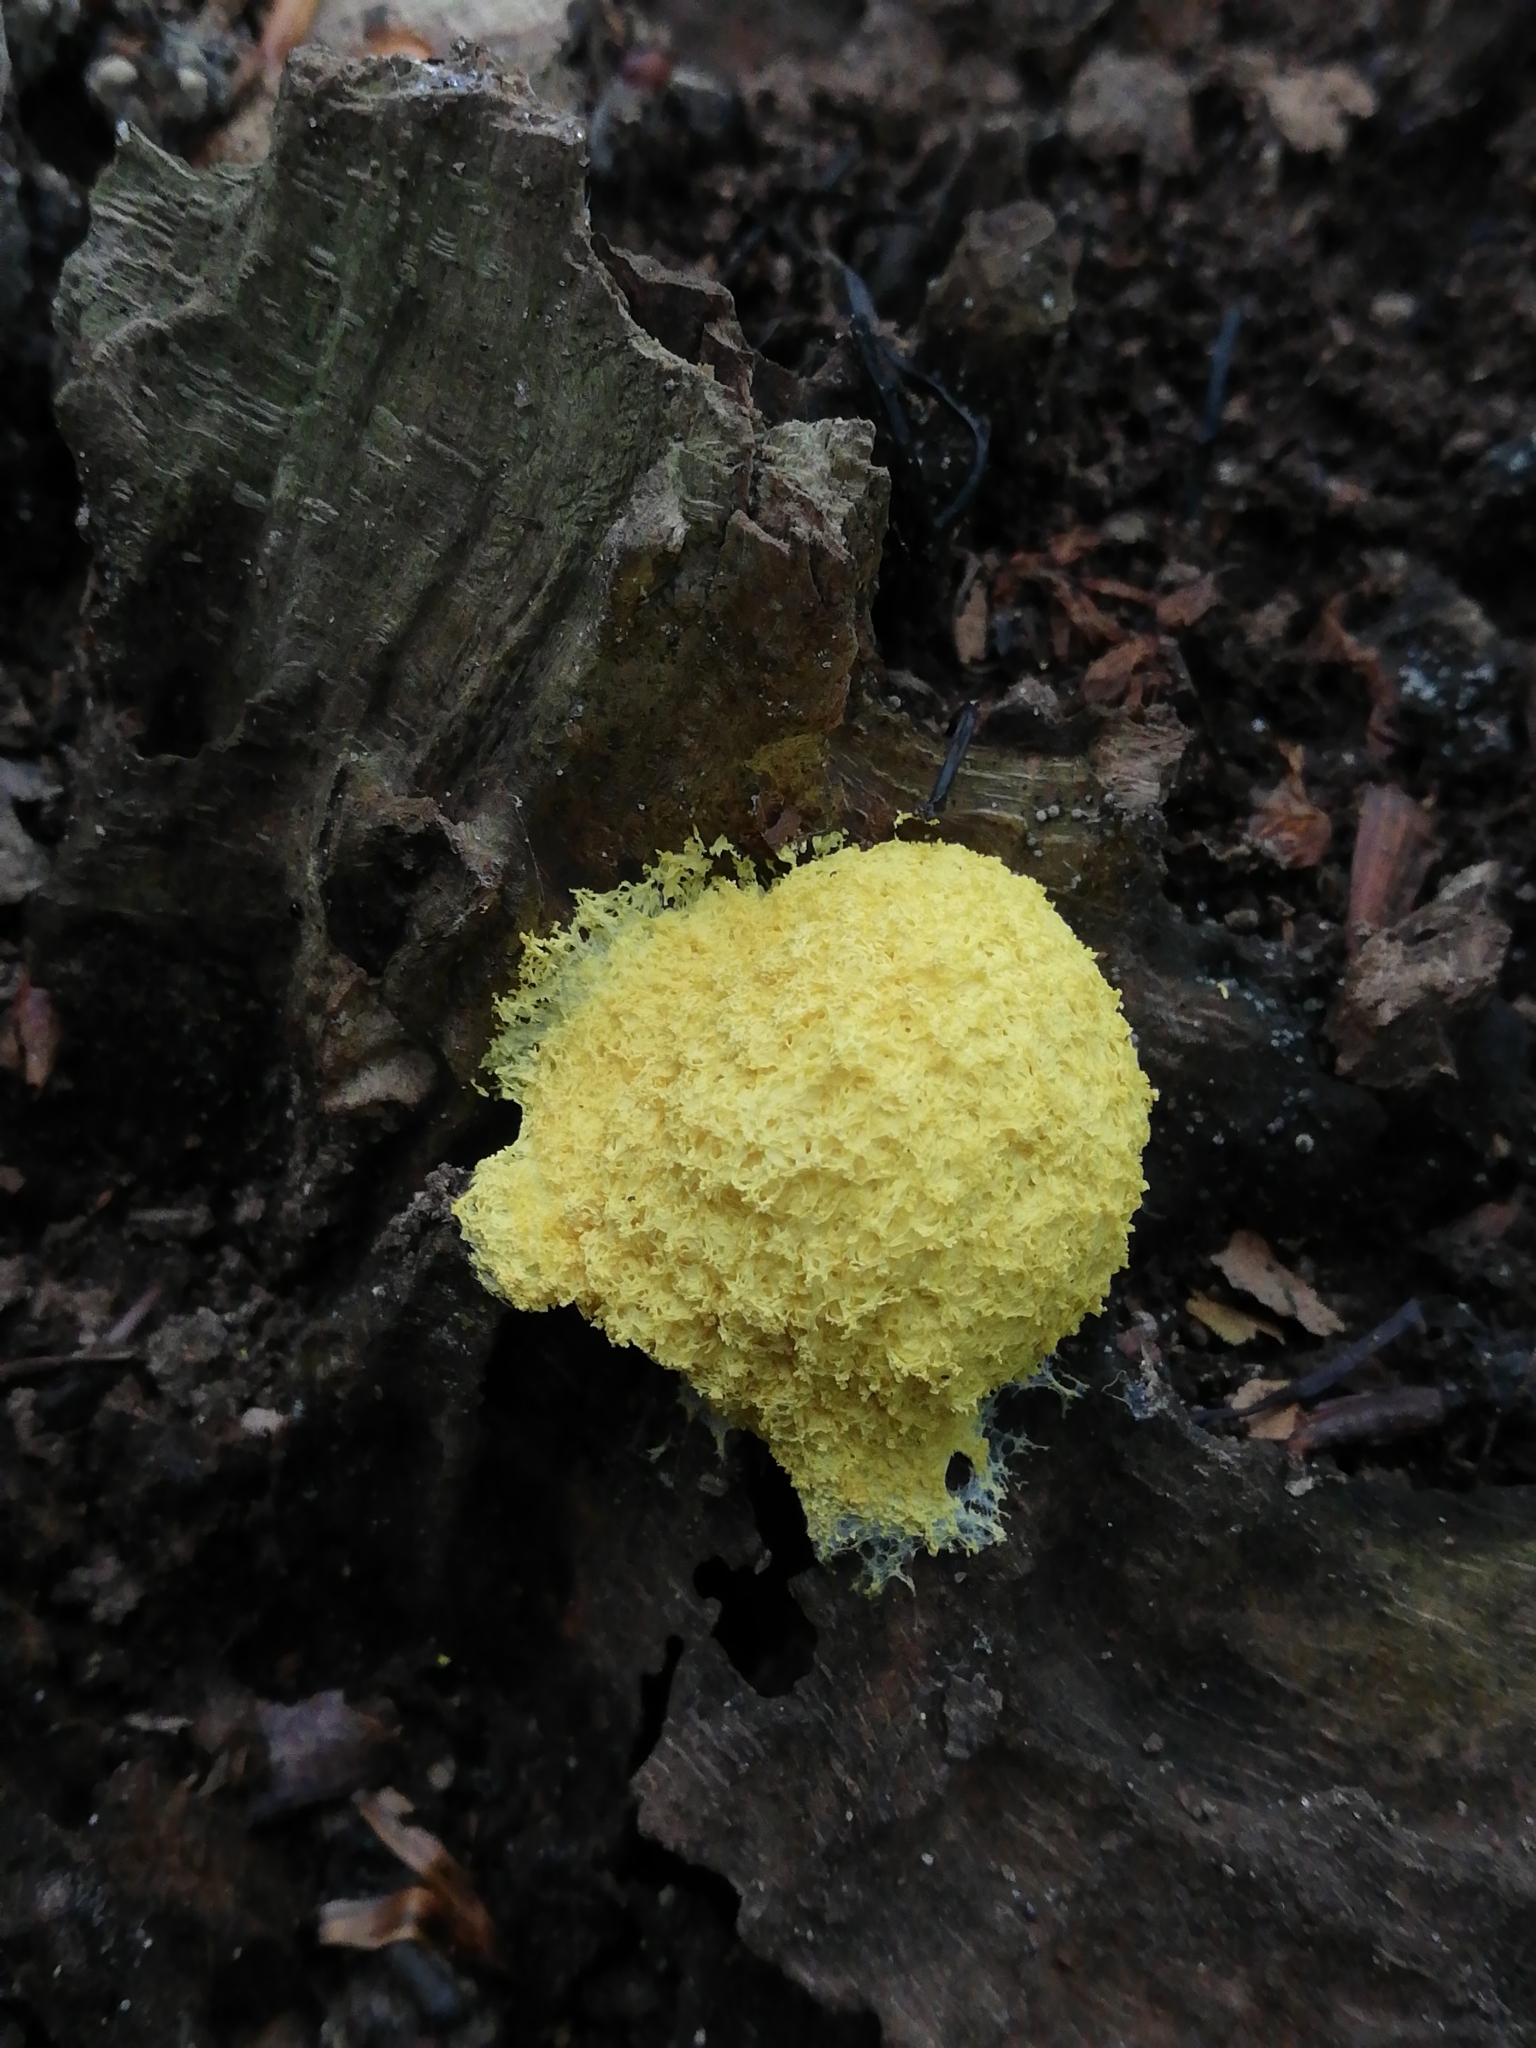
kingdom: Protozoa
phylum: Mycetozoa
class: Myxomycetes
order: Physarales
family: Physaraceae
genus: Fuligo
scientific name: Fuligo septica
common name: Dog vomit slime mold
